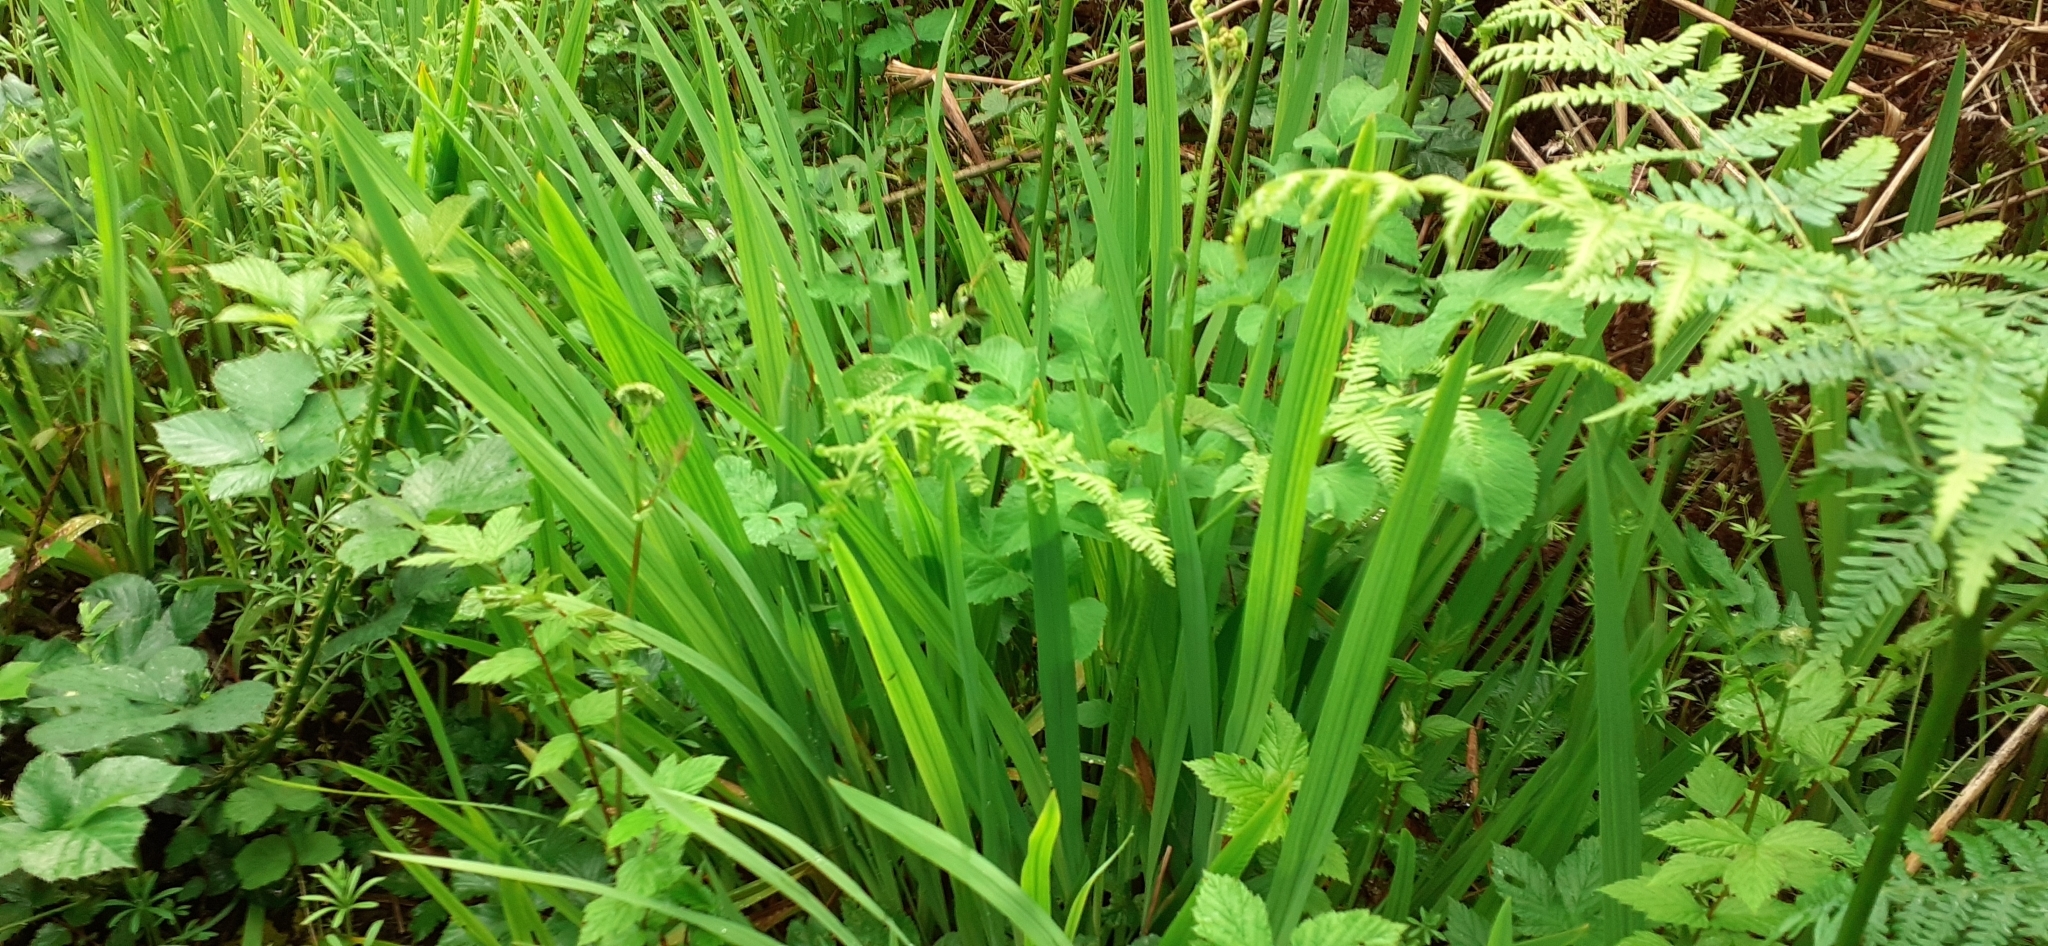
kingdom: Plantae
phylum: Tracheophyta
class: Liliopsida
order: Asparagales
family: Iridaceae
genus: Crocosmia
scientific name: Crocosmia crocosmiiflora
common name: Montbretia
